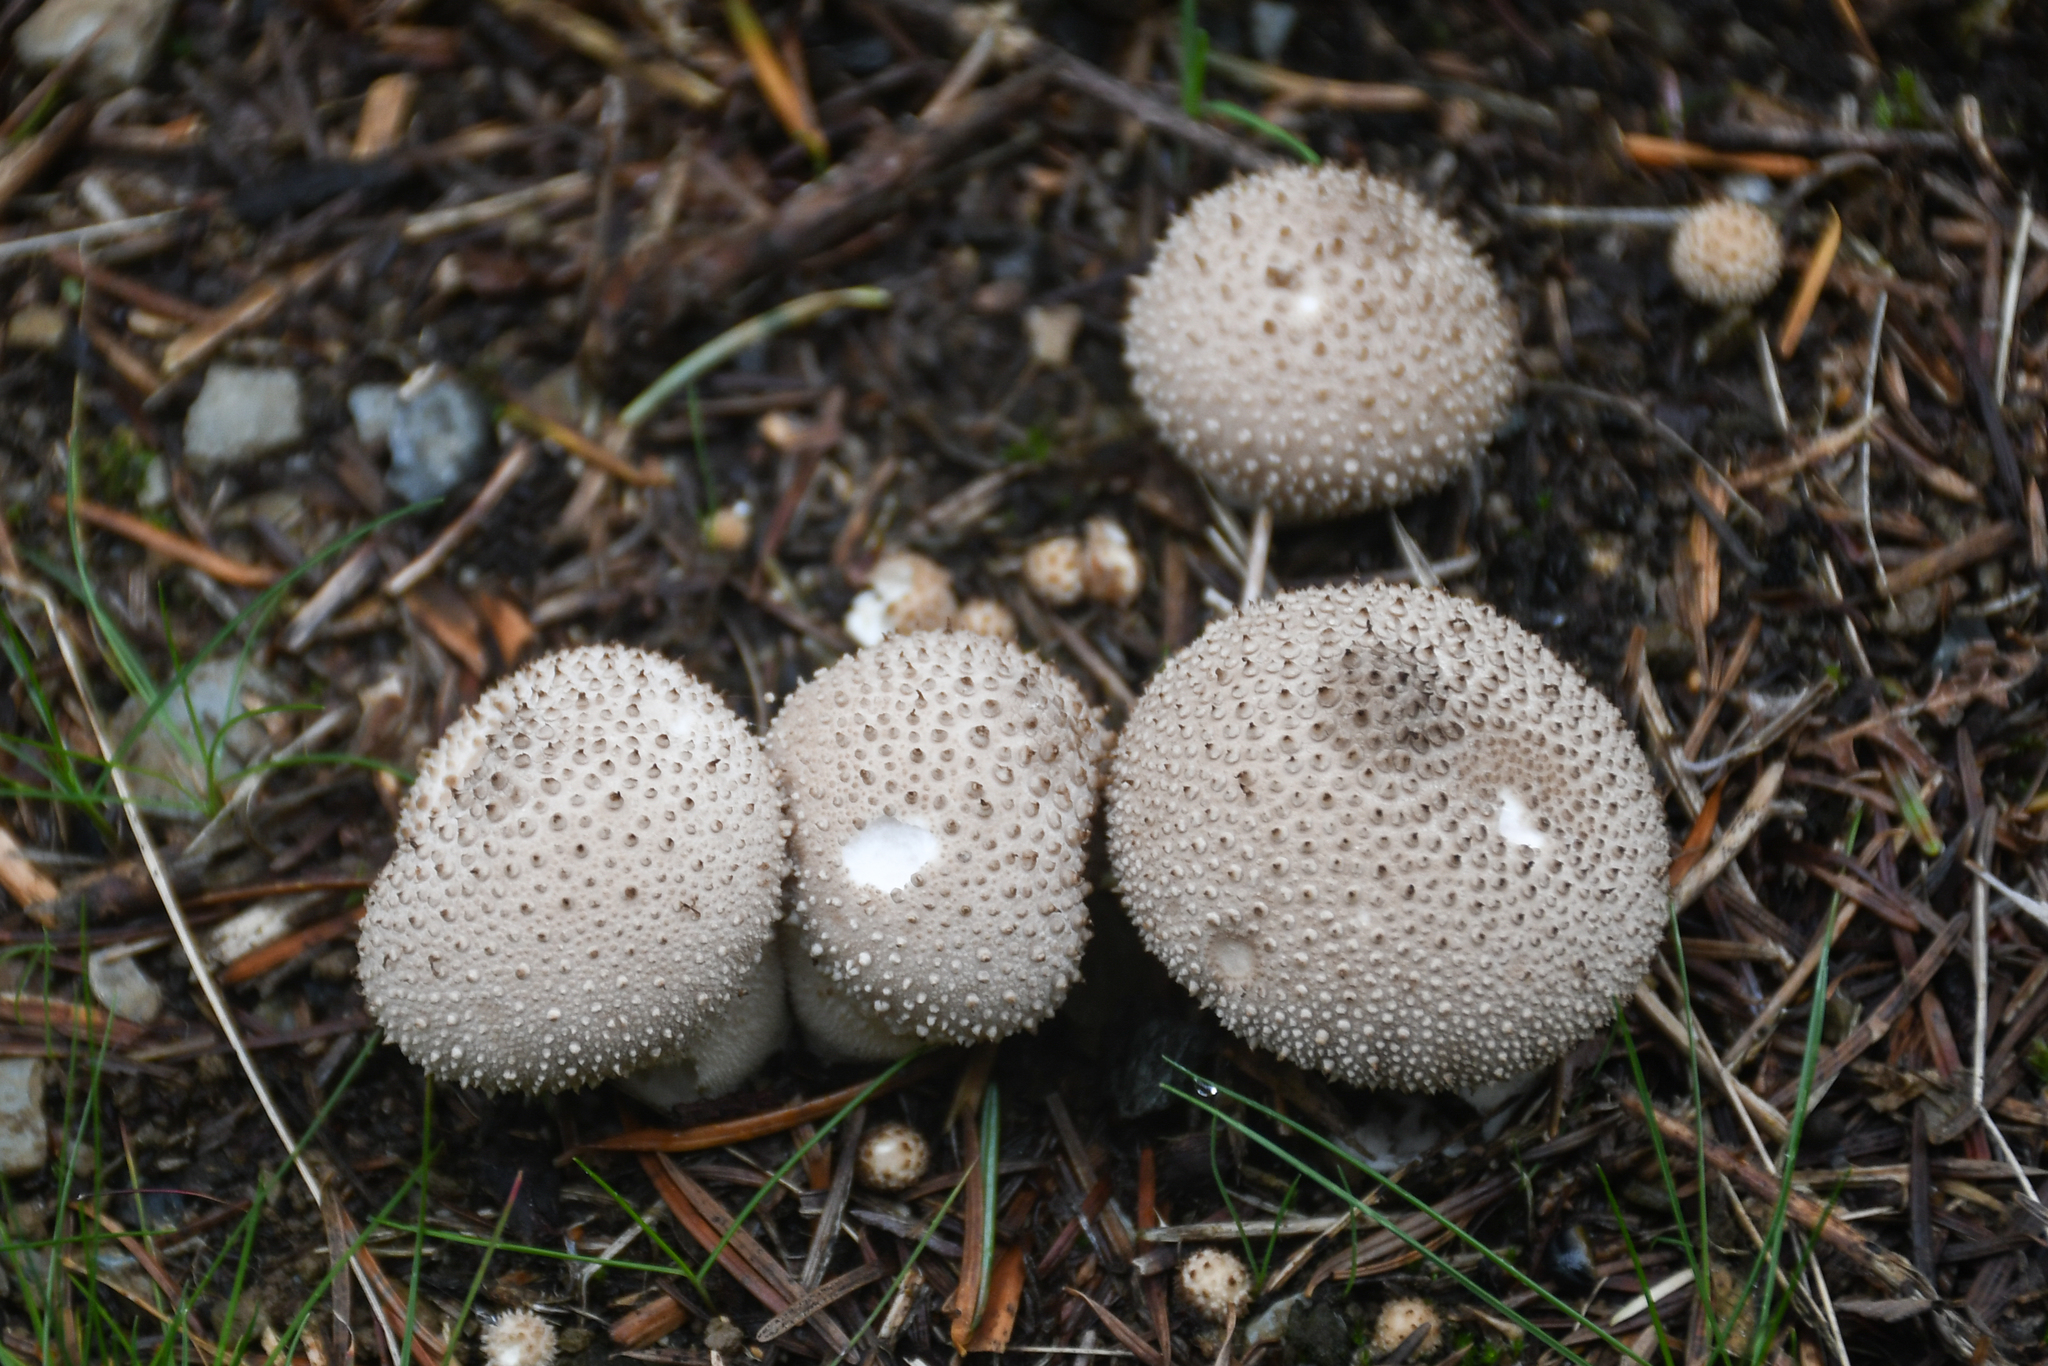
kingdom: Fungi
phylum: Basidiomycota
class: Agaricomycetes
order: Agaricales
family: Lycoperdaceae
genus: Lycoperdon
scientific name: Lycoperdon perlatum
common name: Common puffball
